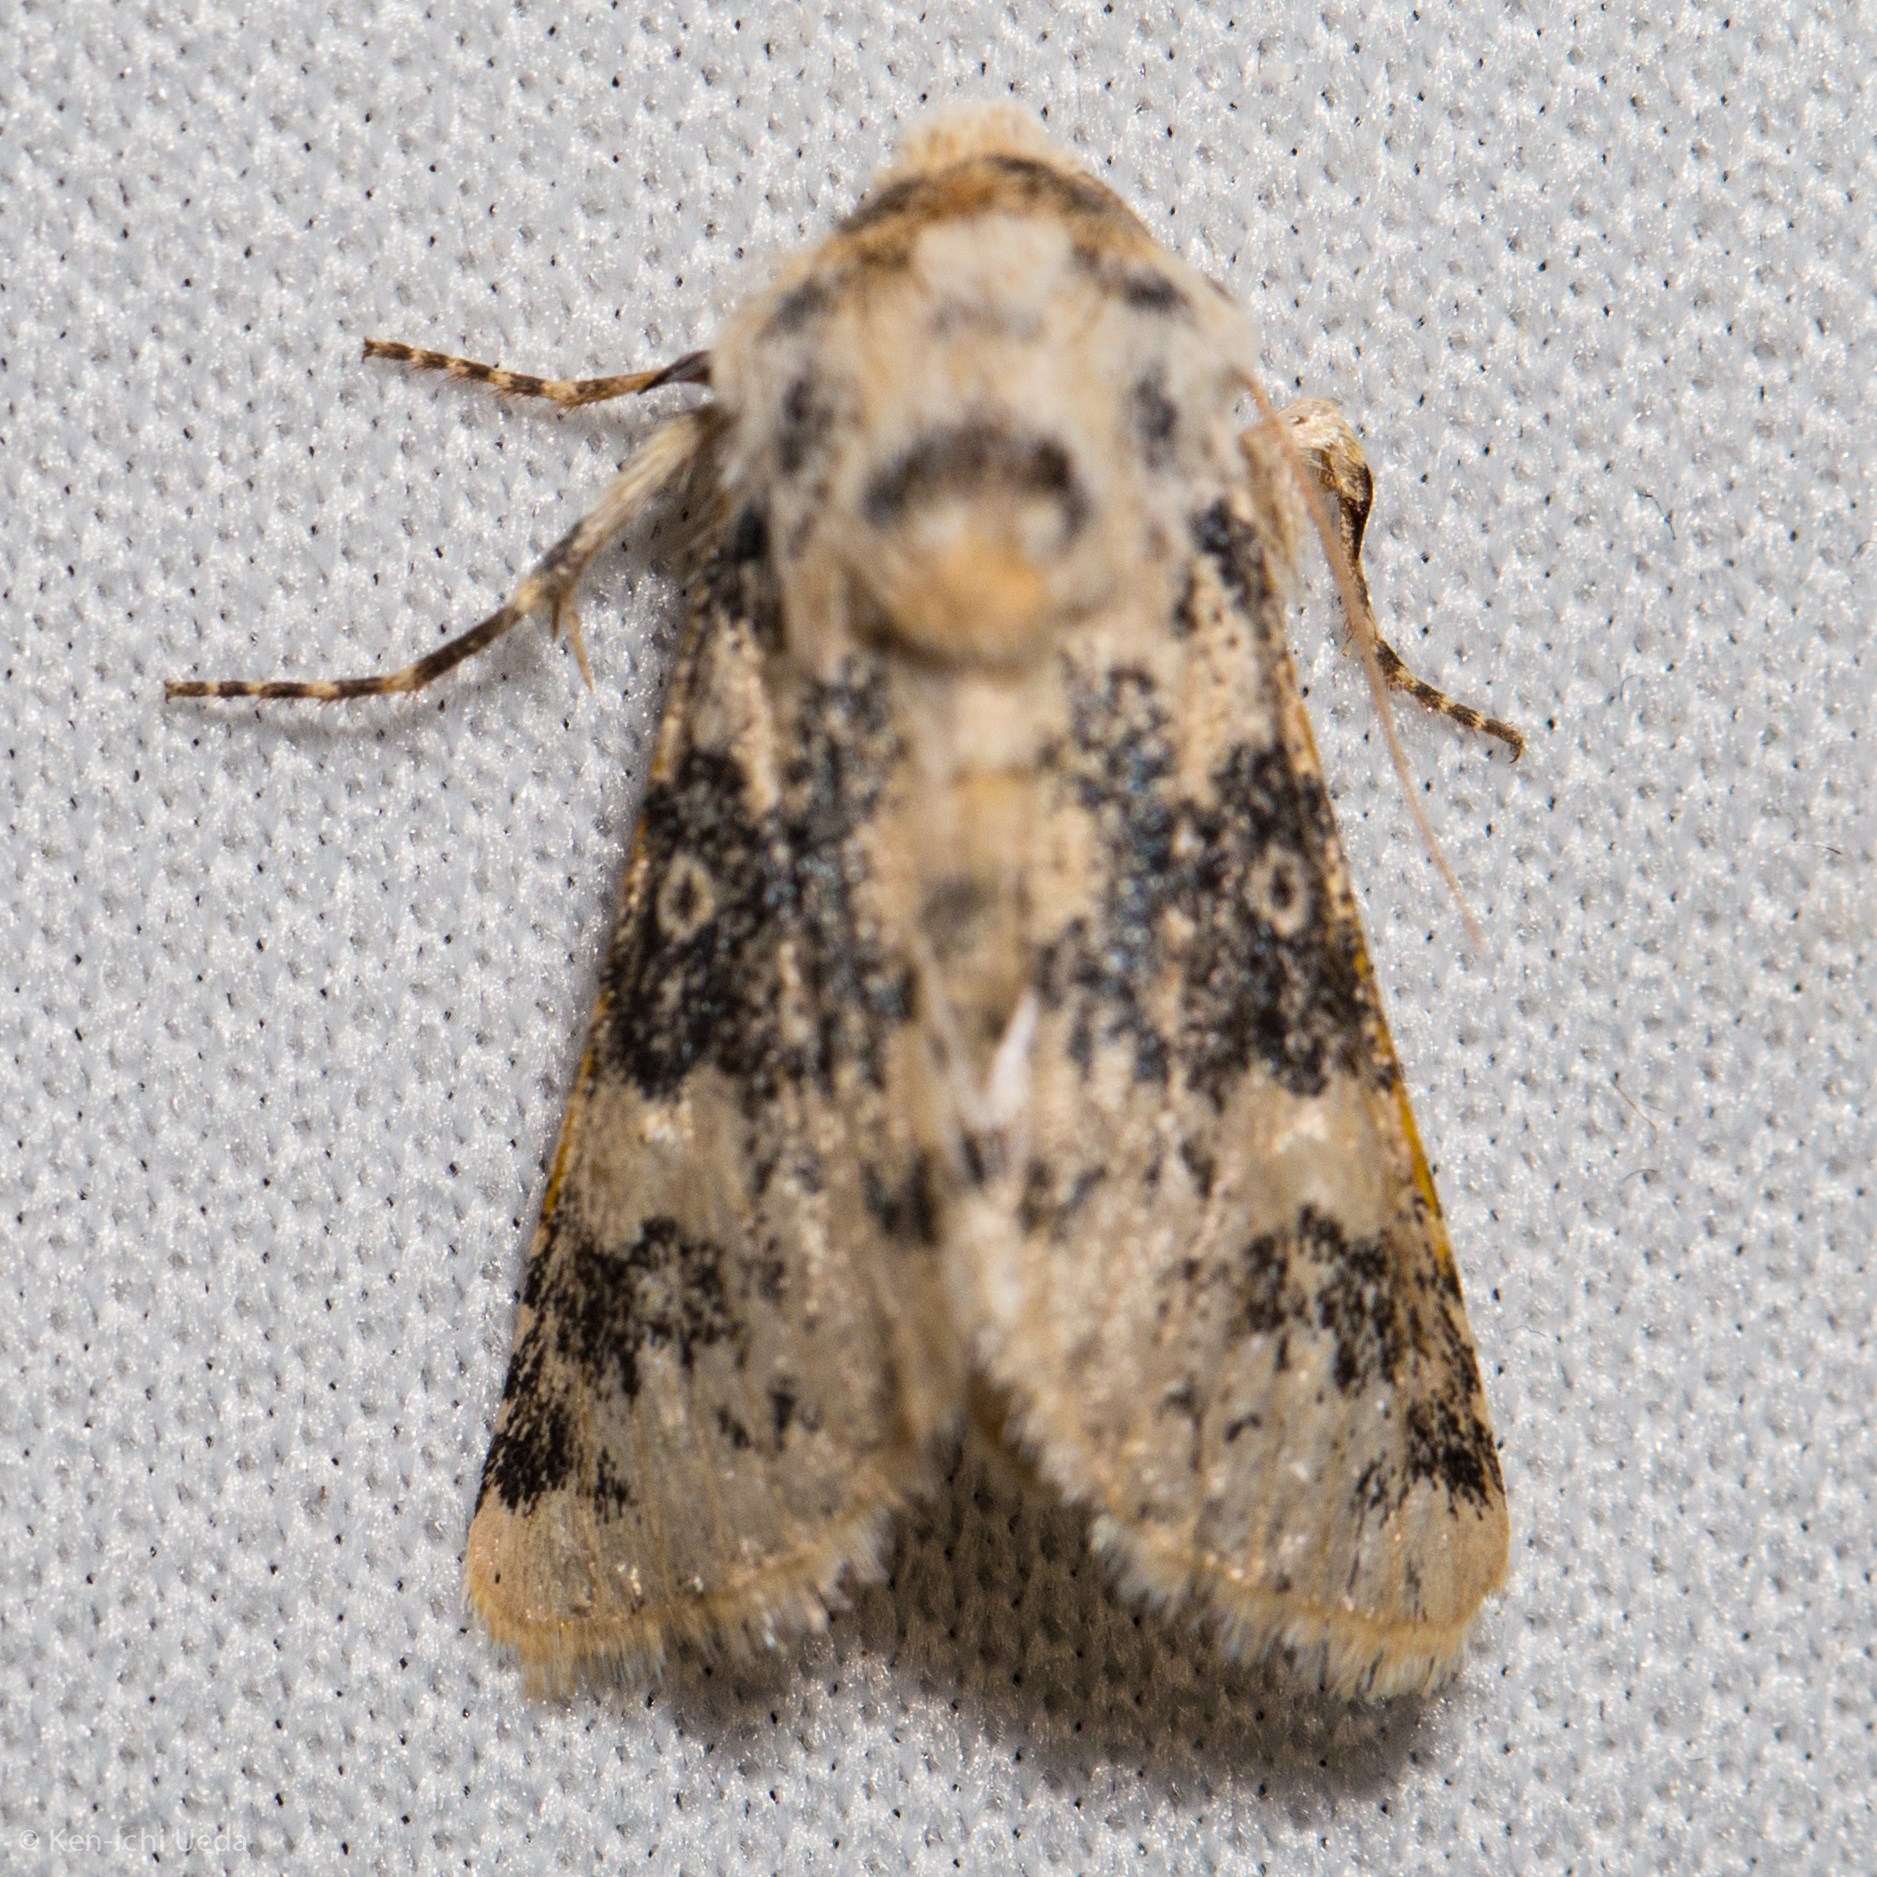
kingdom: Animalia
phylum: Arthropoda
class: Insecta
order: Lepidoptera
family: Noctuidae
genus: Unciella
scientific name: Unciella primula
